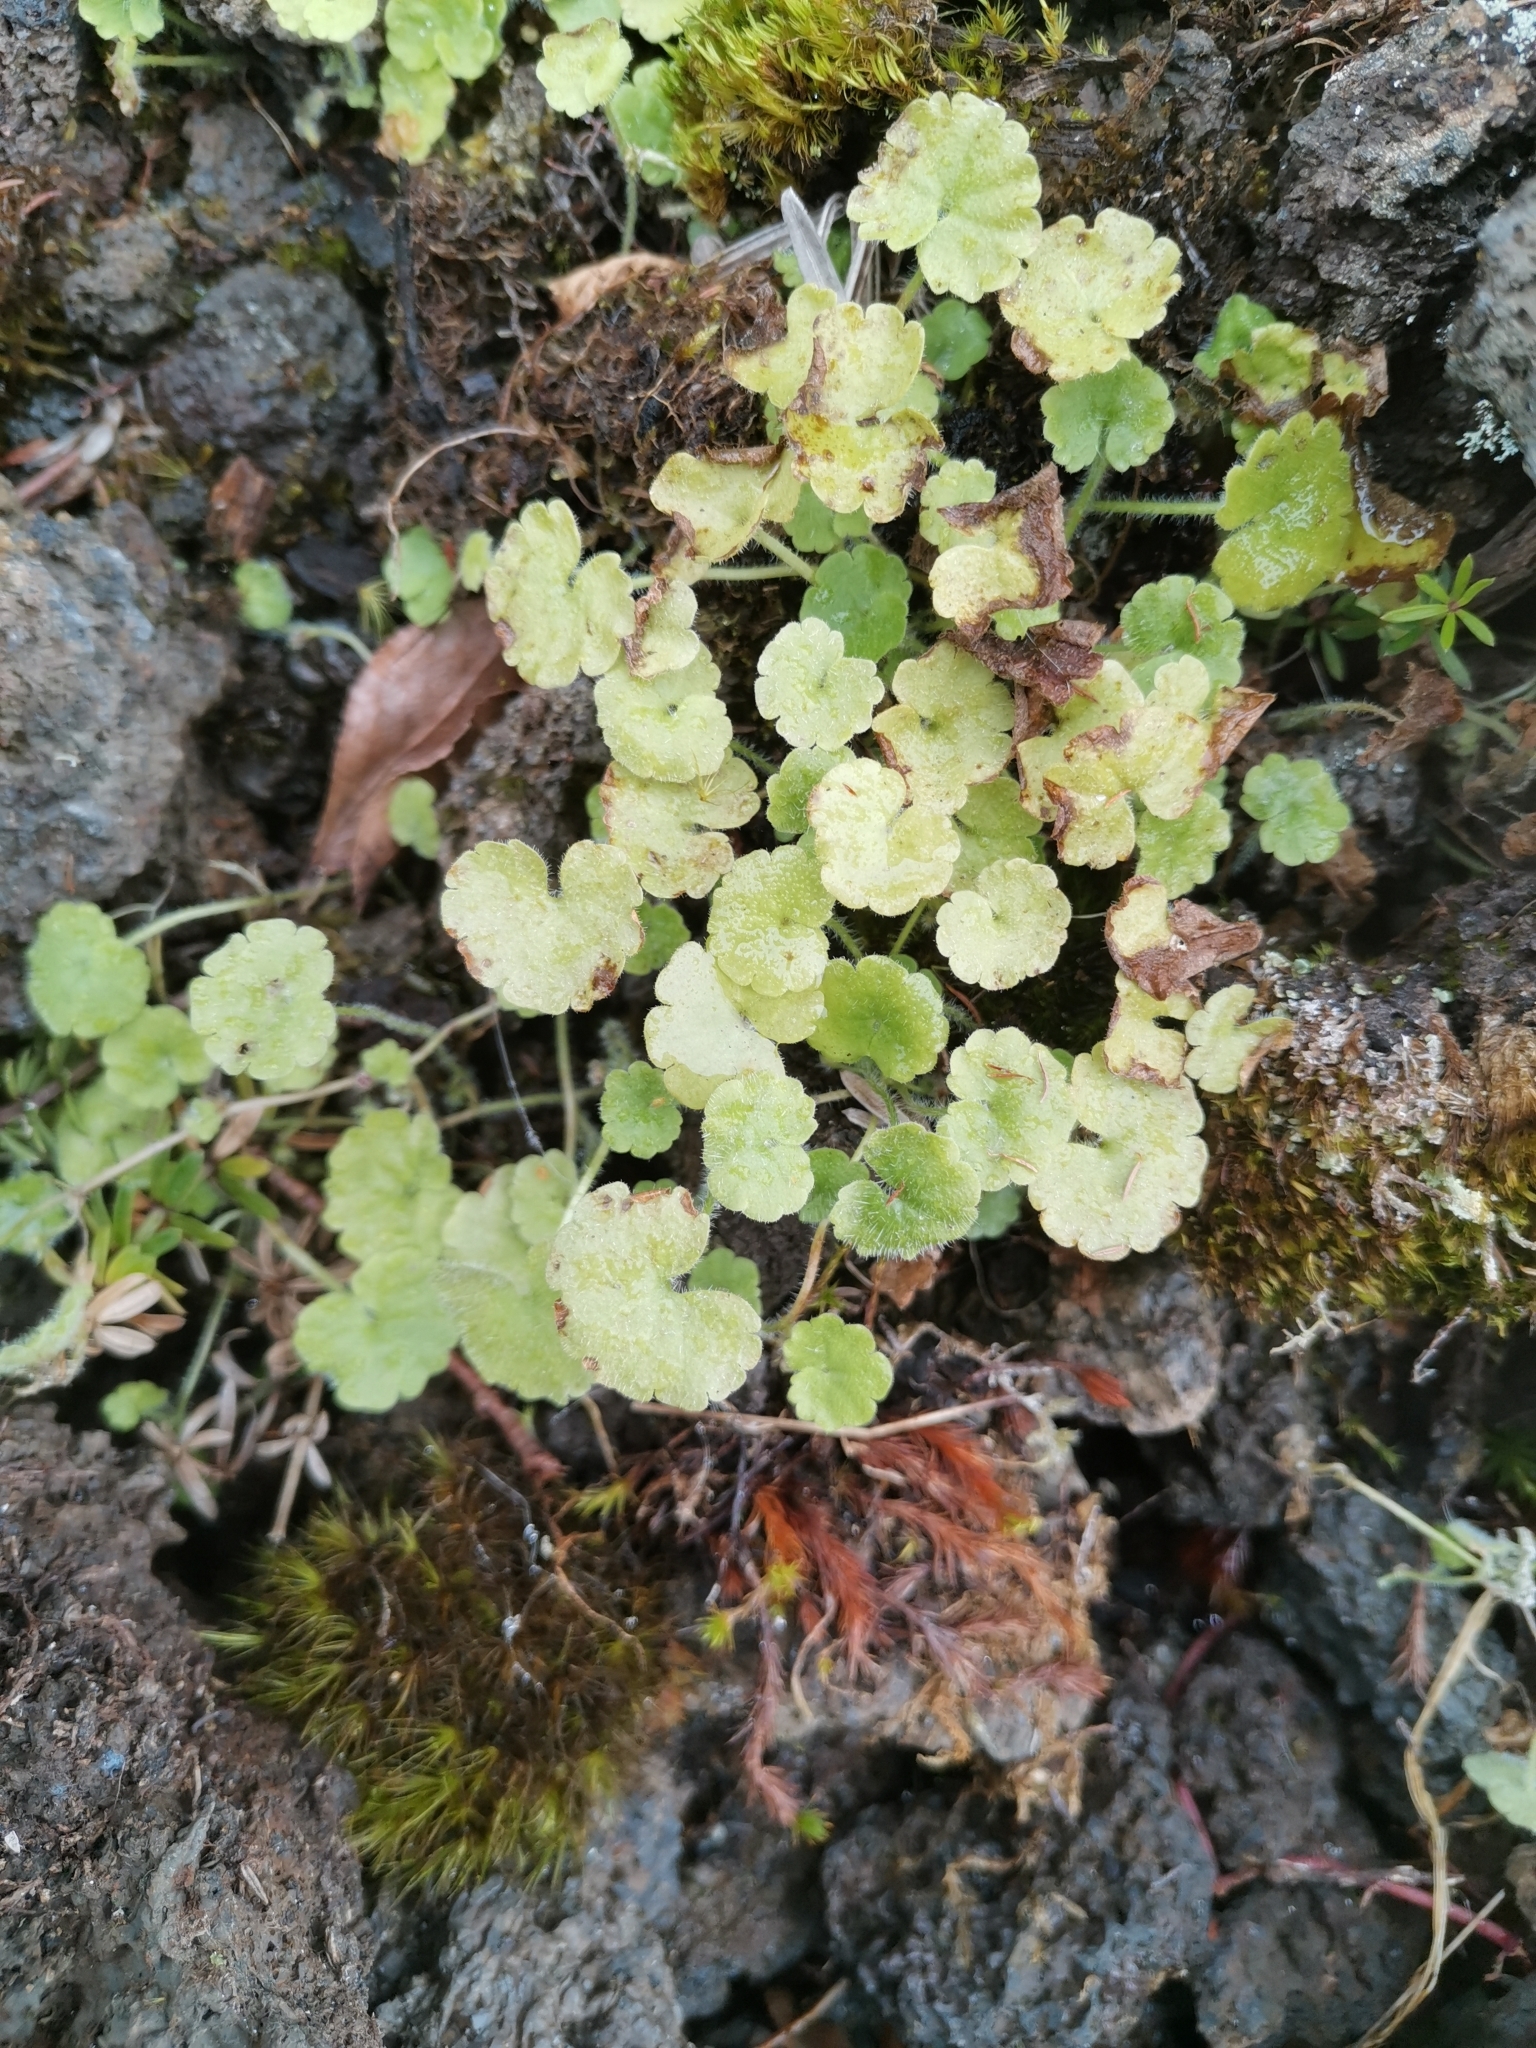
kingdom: Plantae
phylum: Tracheophyta
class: Magnoliopsida
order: Lamiales
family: Plantaginaceae
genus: Sibthorpia
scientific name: Sibthorpia europaea
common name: Cornish moneywort
